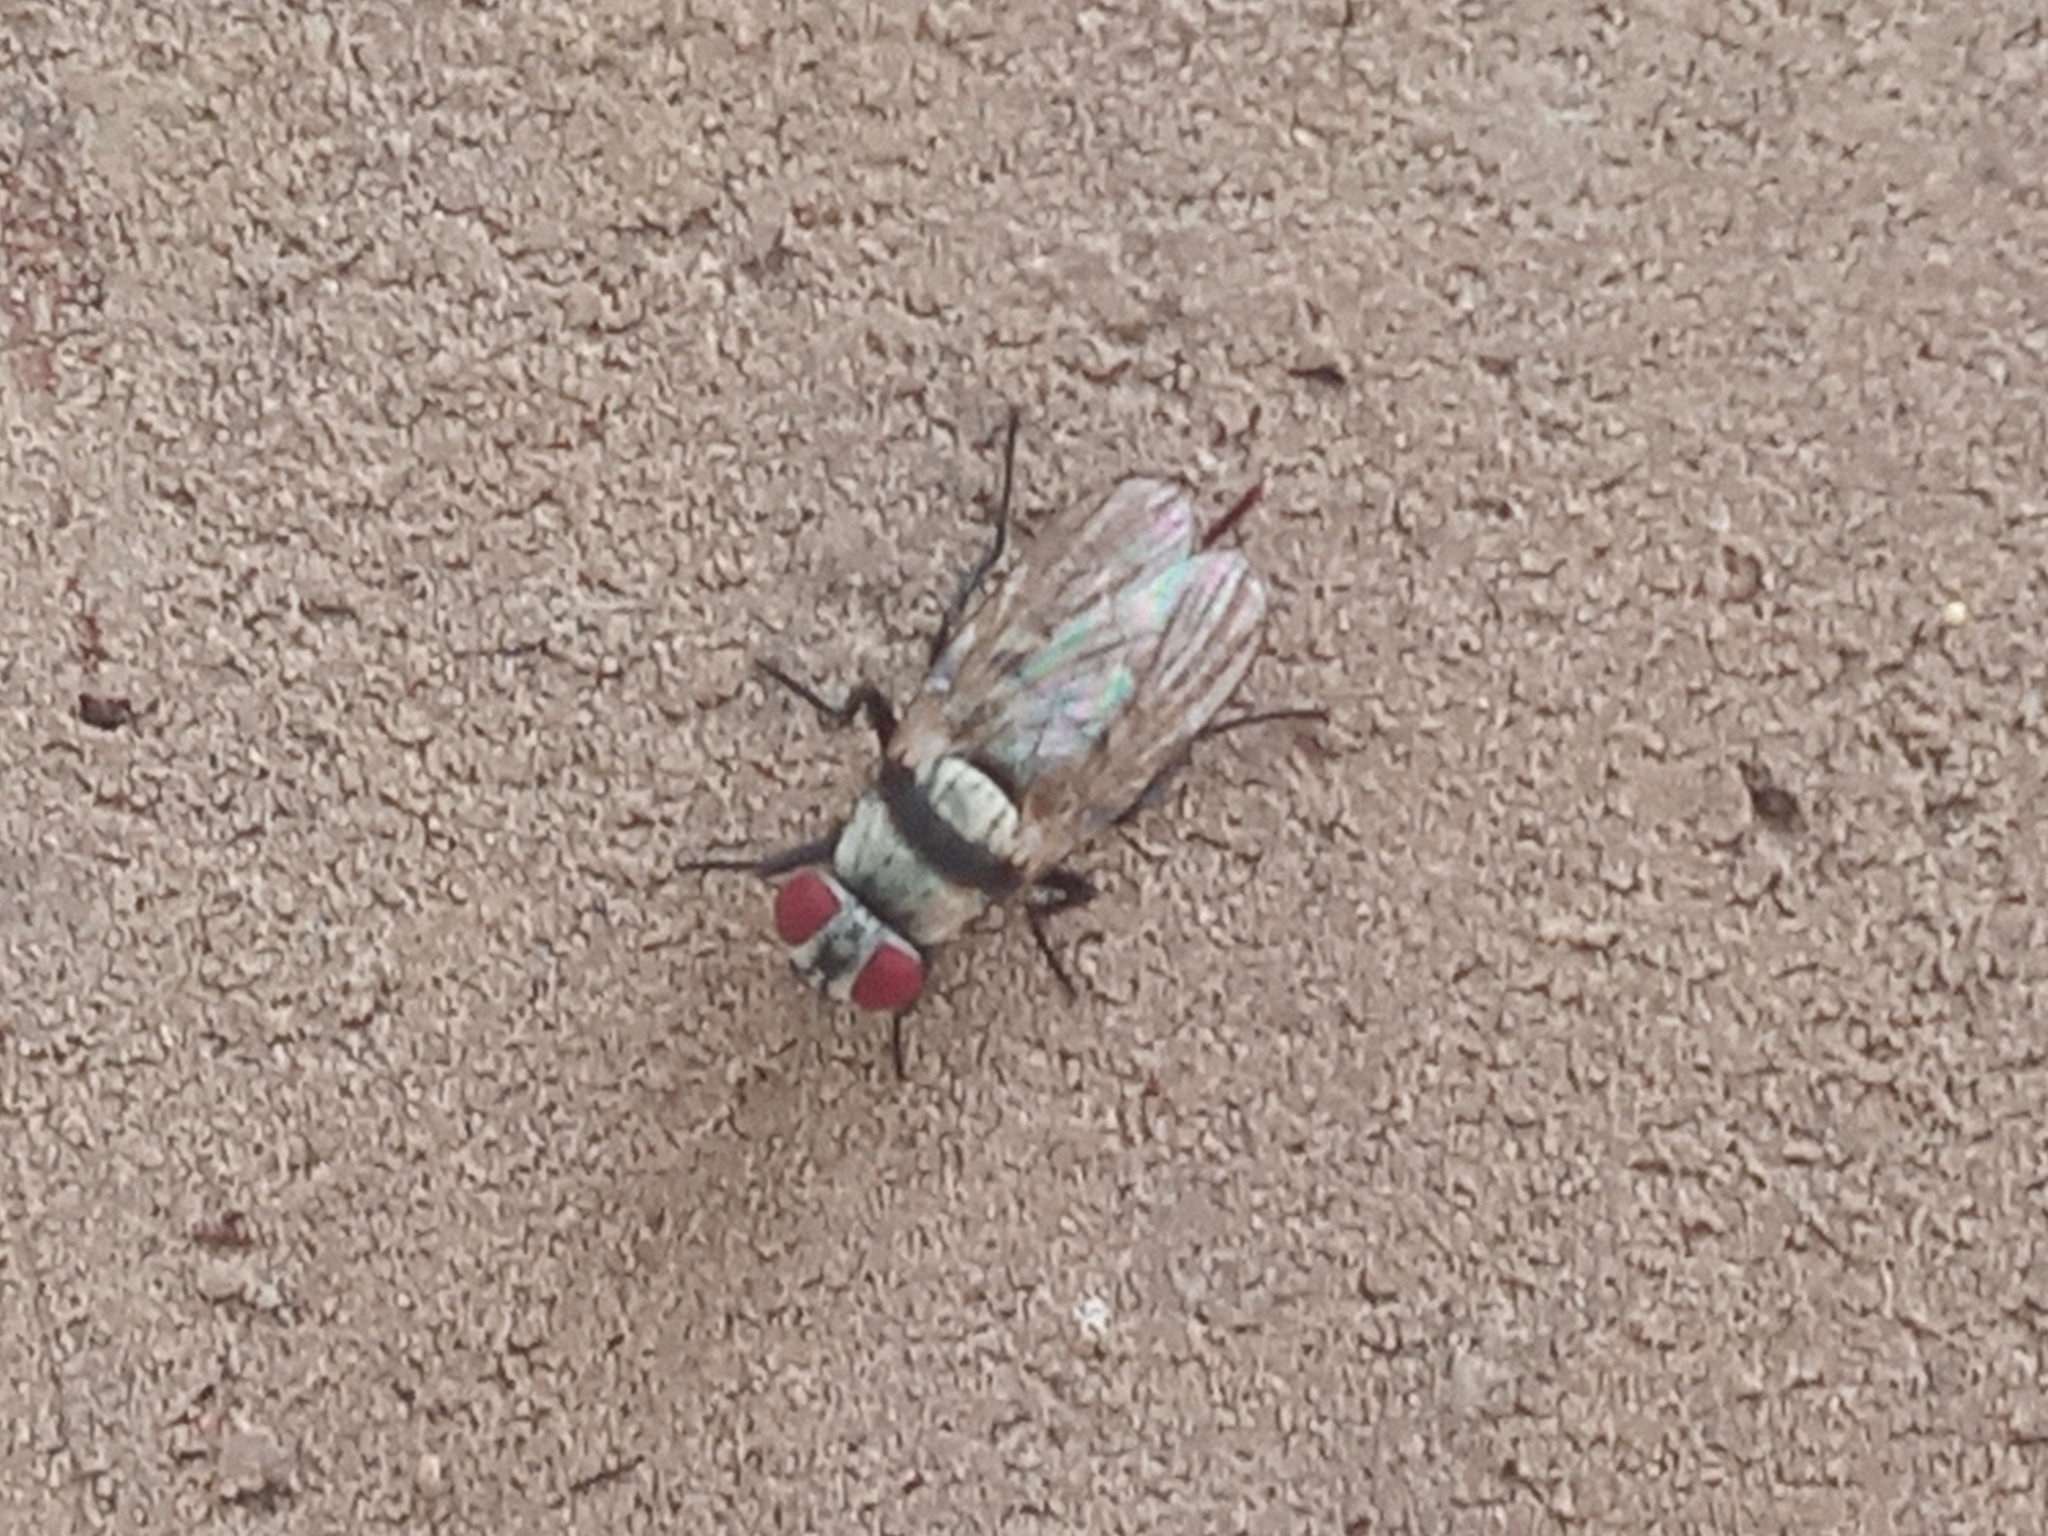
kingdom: Animalia
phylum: Arthropoda
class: Insecta
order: Diptera
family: Anthomyiidae
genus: Anthomyia
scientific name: Anthomyia illocata
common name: Fly
